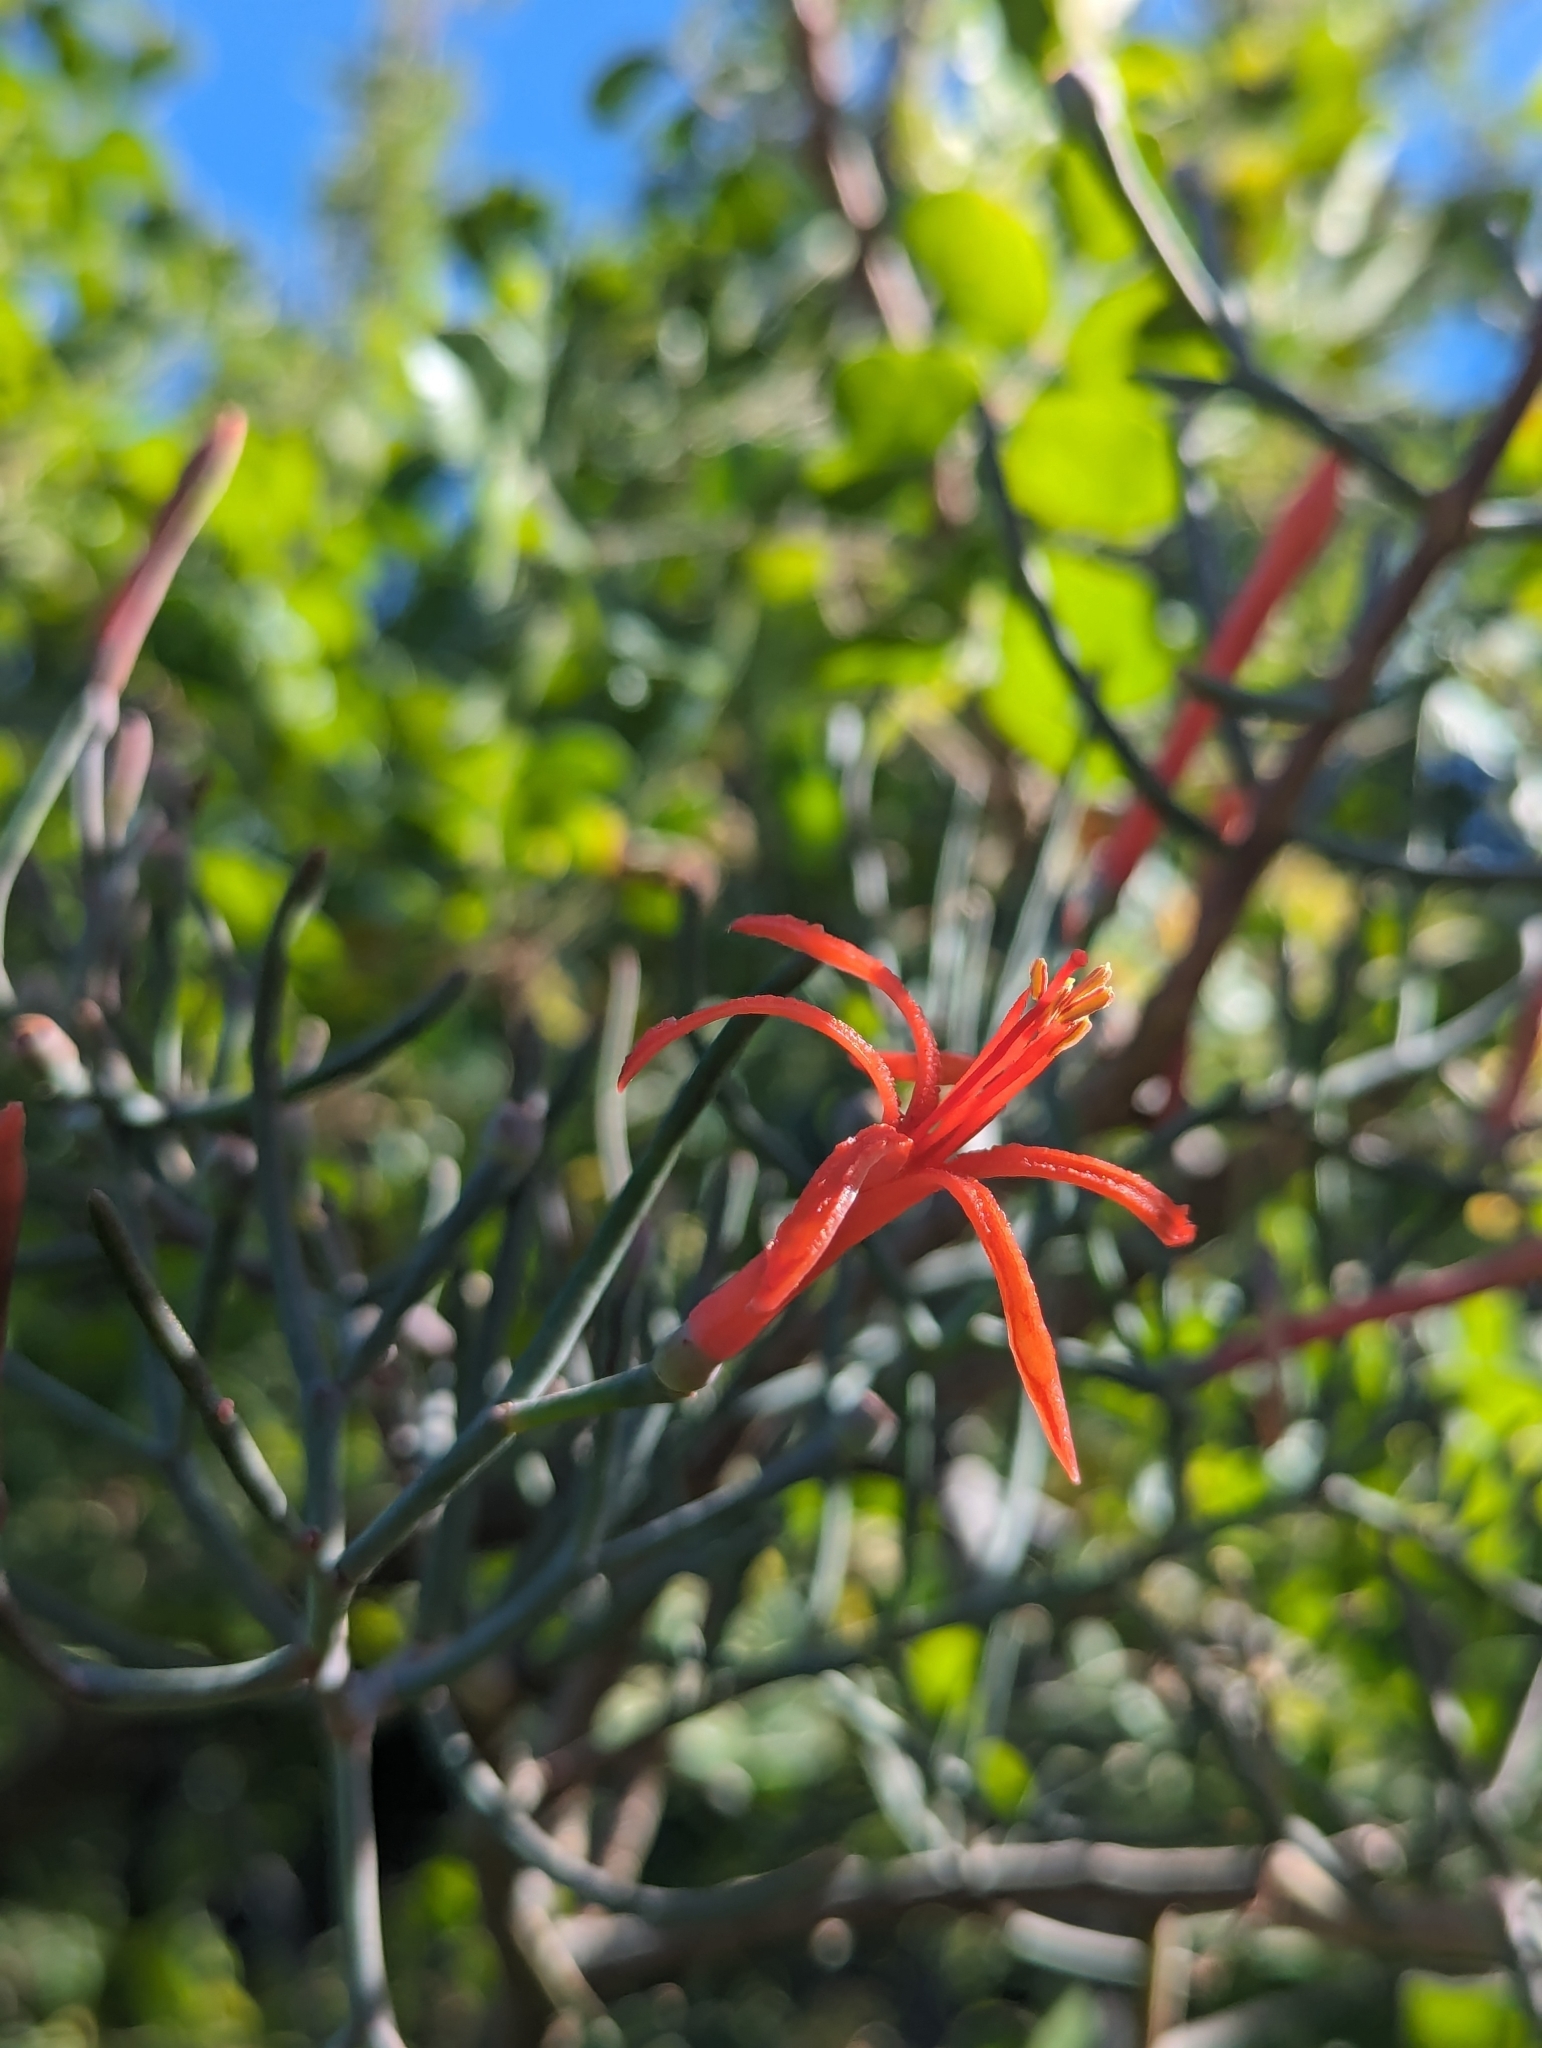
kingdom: Plantae
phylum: Tracheophyta
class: Magnoliopsida
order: Santalales
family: Loranthaceae
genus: Psittacanthus
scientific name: Psittacanthus sonorae
